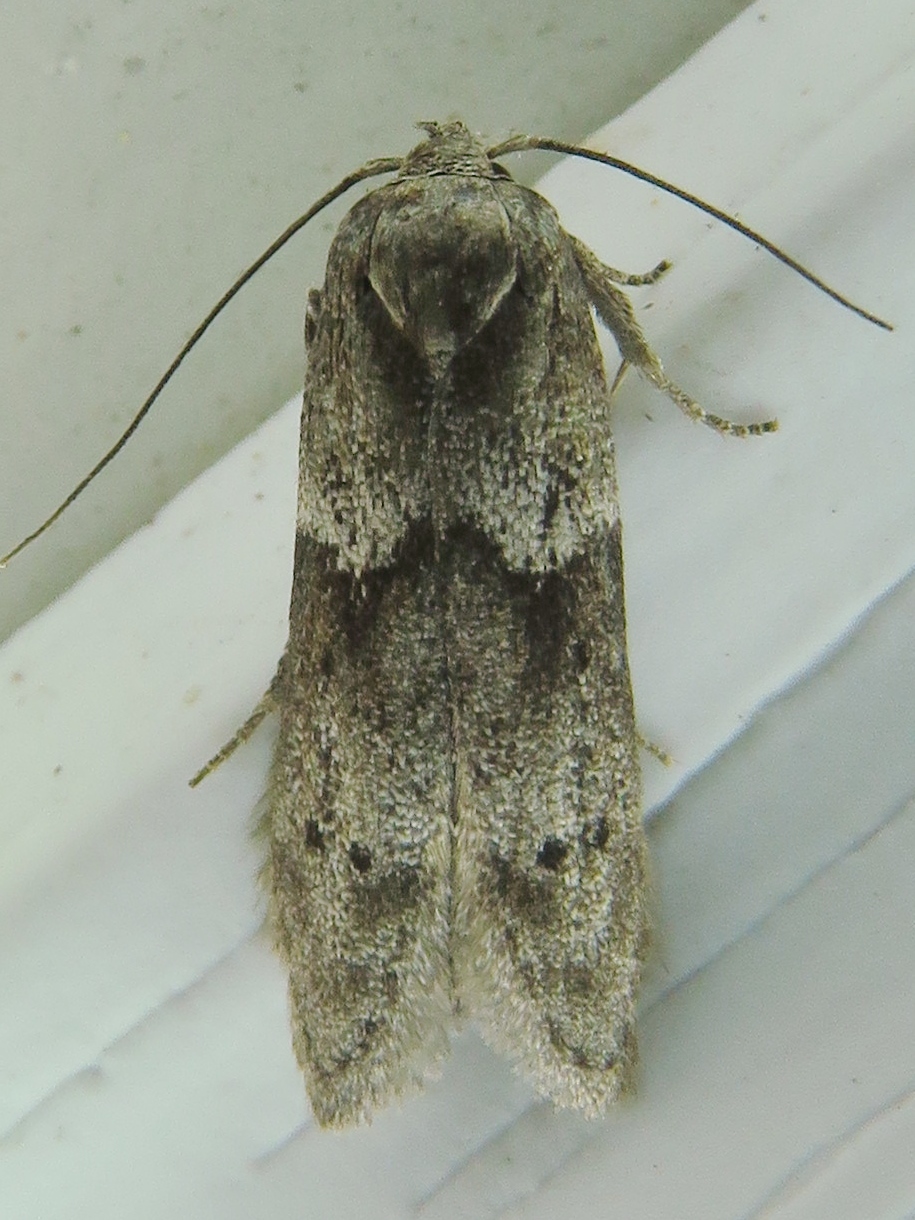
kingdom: Animalia
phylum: Arthropoda
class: Insecta
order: Lepidoptera
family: Blastobasidae
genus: Blastobasis
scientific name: Blastobasis glandulella
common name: Acorn moth
